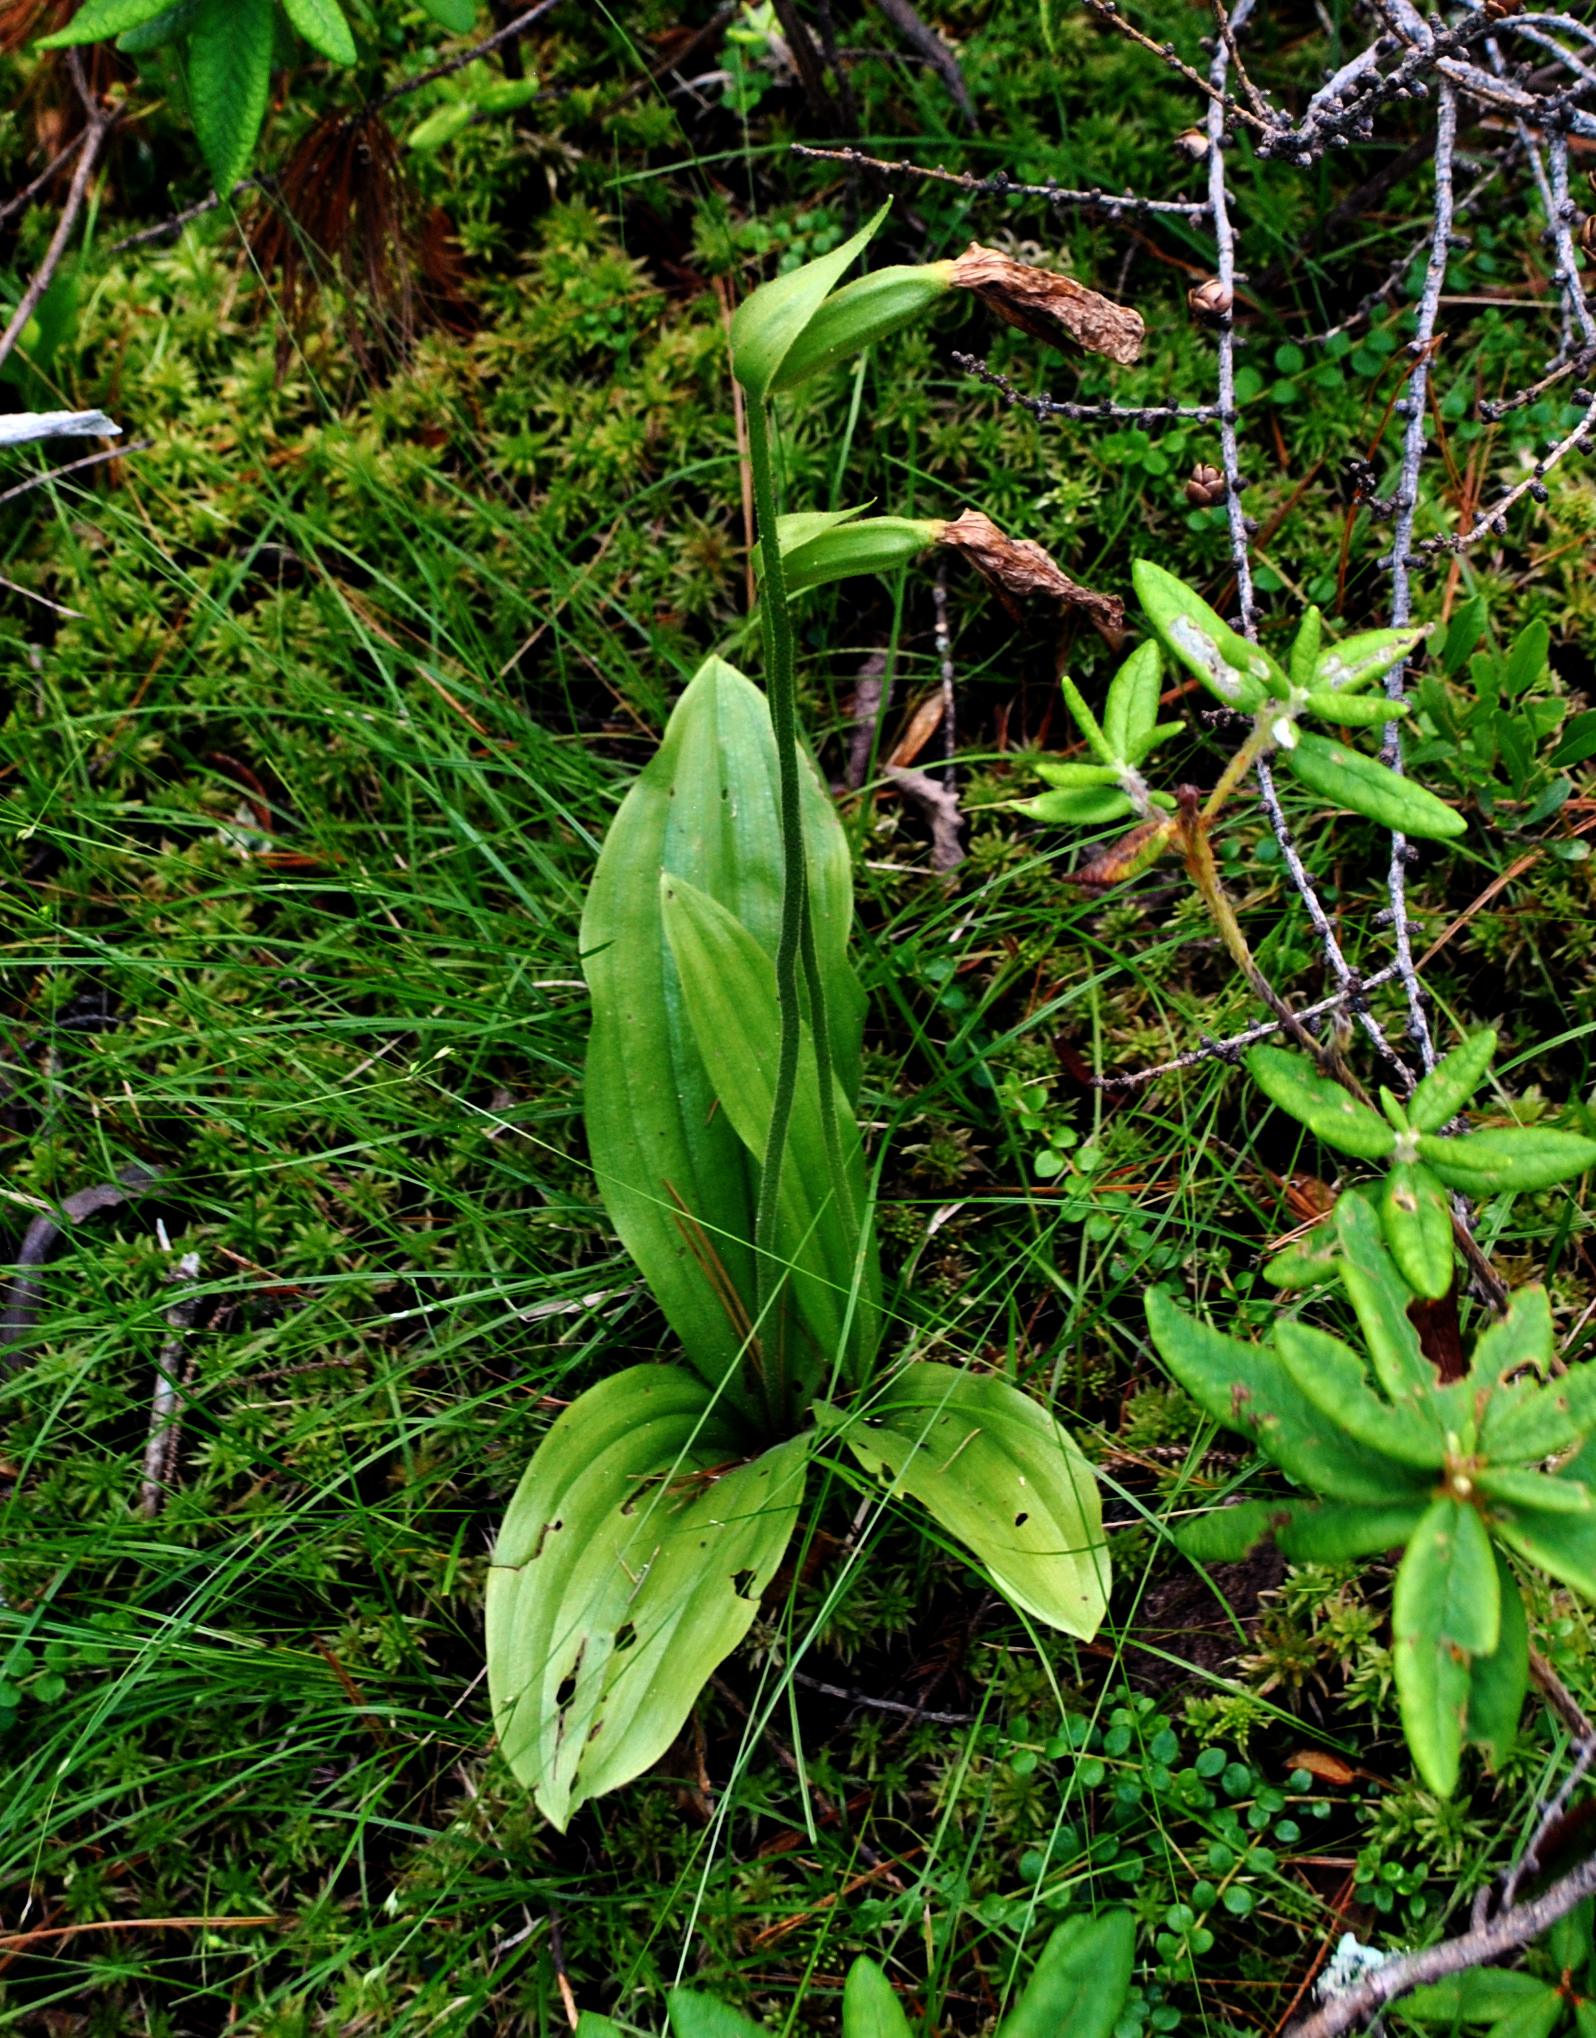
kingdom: Plantae
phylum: Tracheophyta
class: Liliopsida
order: Asparagales
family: Orchidaceae
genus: Cypripedium
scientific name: Cypripedium acaule
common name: Pink lady's-slipper
